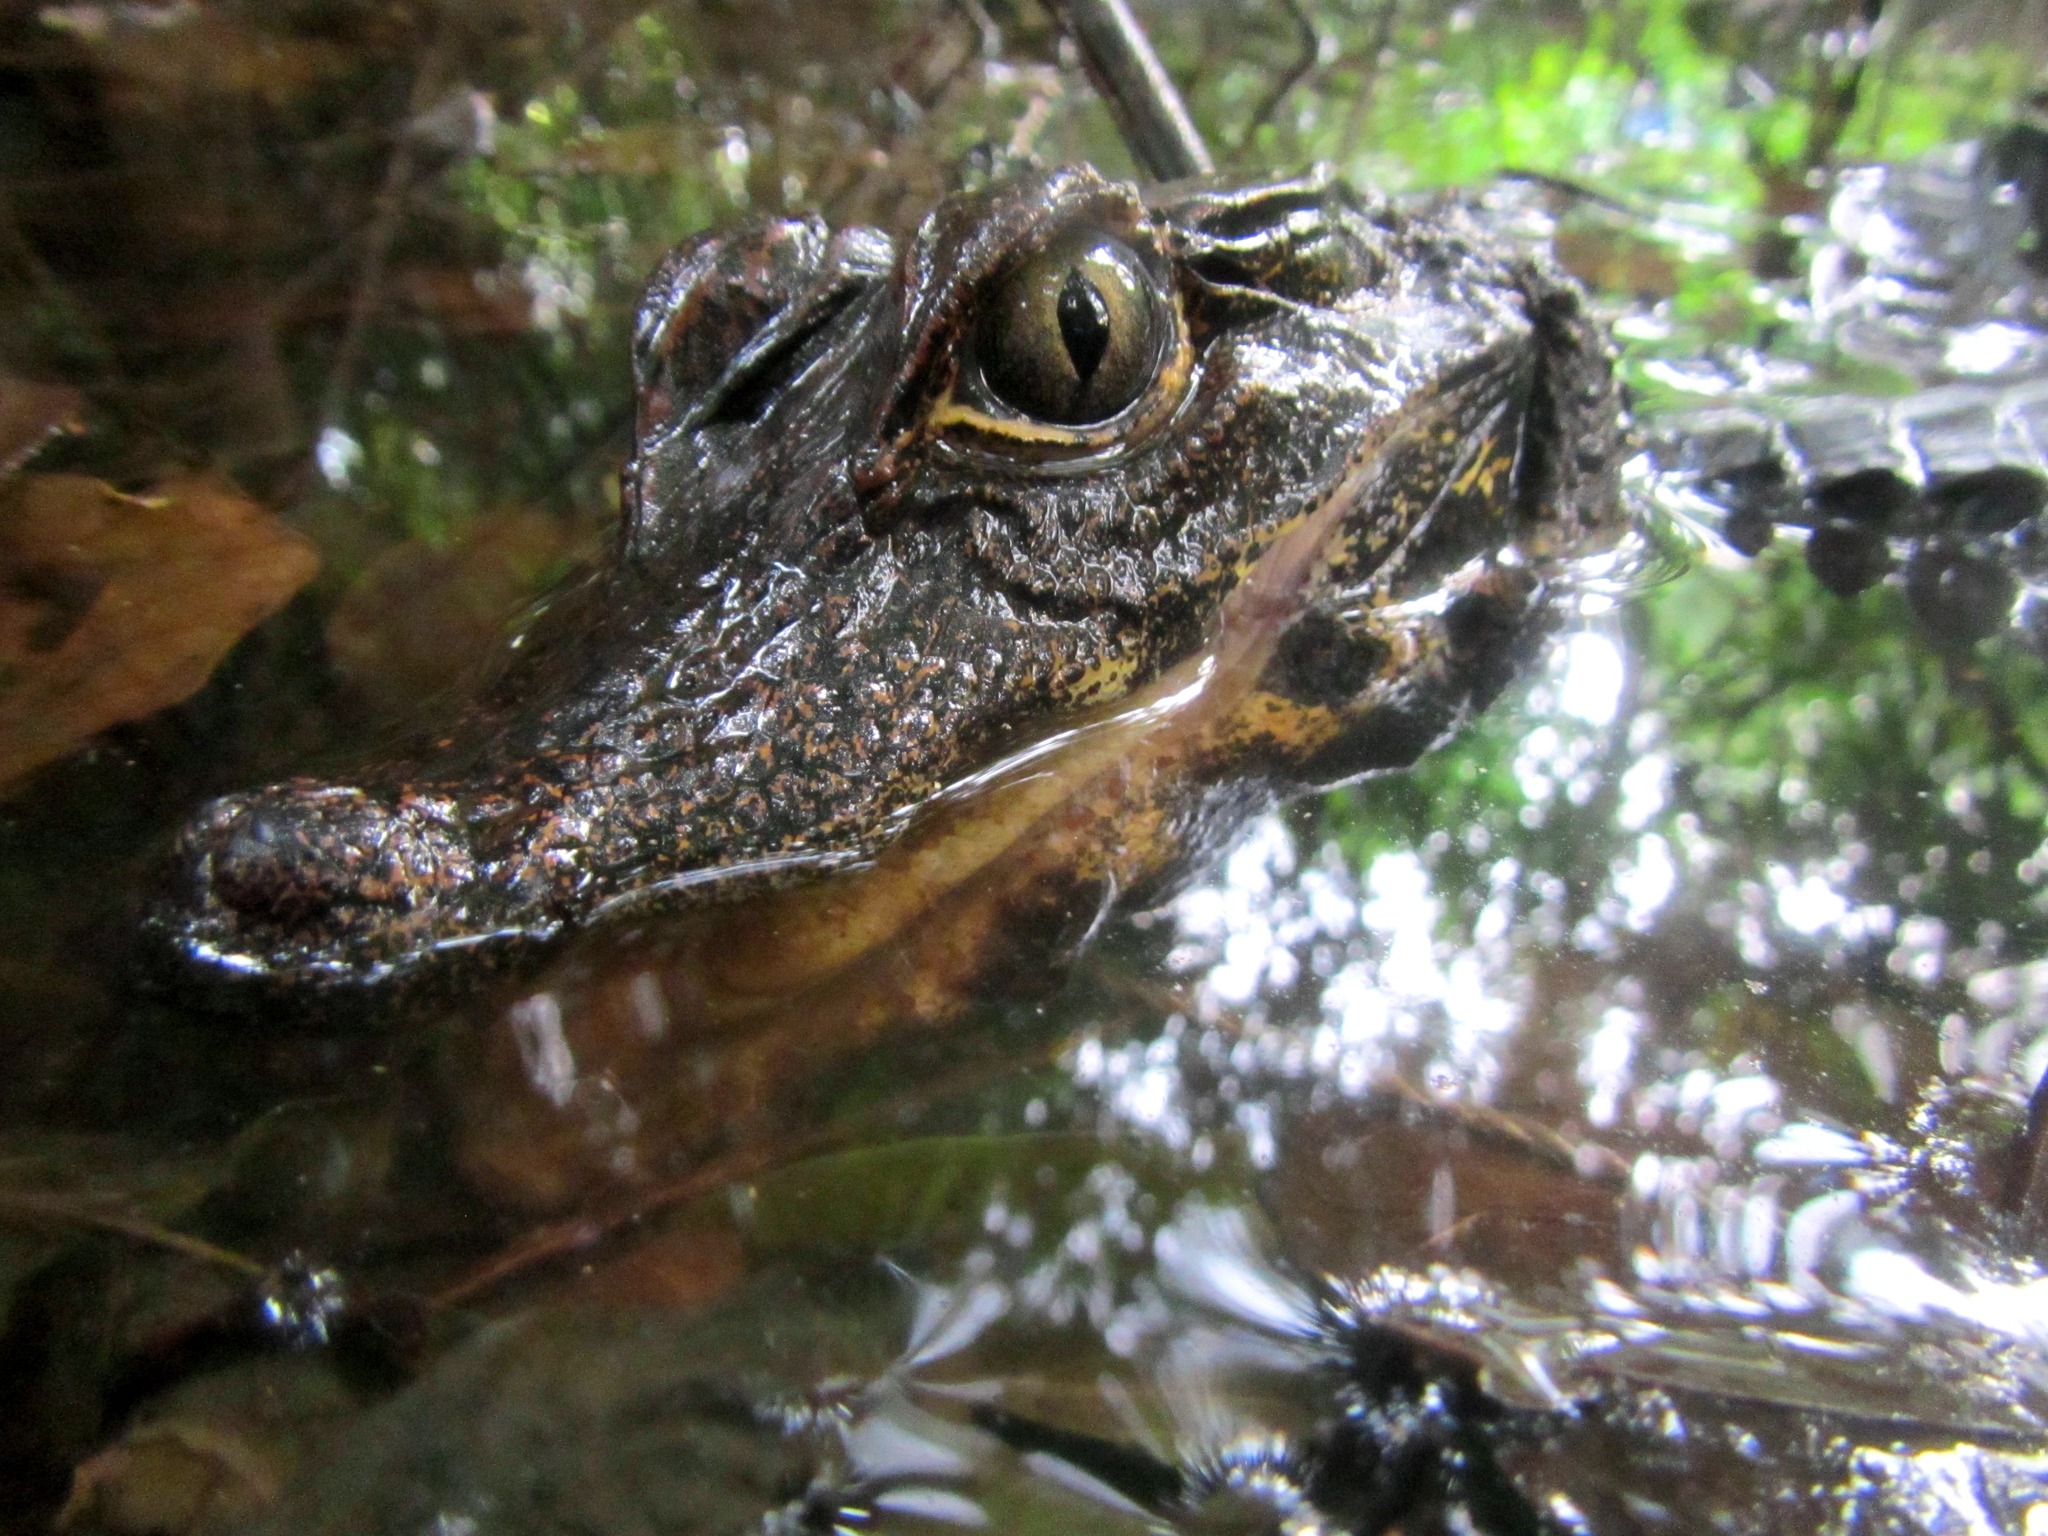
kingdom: Animalia
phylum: Chordata
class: Crocodylia
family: Crocodylidae
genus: Osteolaemus
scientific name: Osteolaemus osborni
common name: Congo dwarf crocodile
